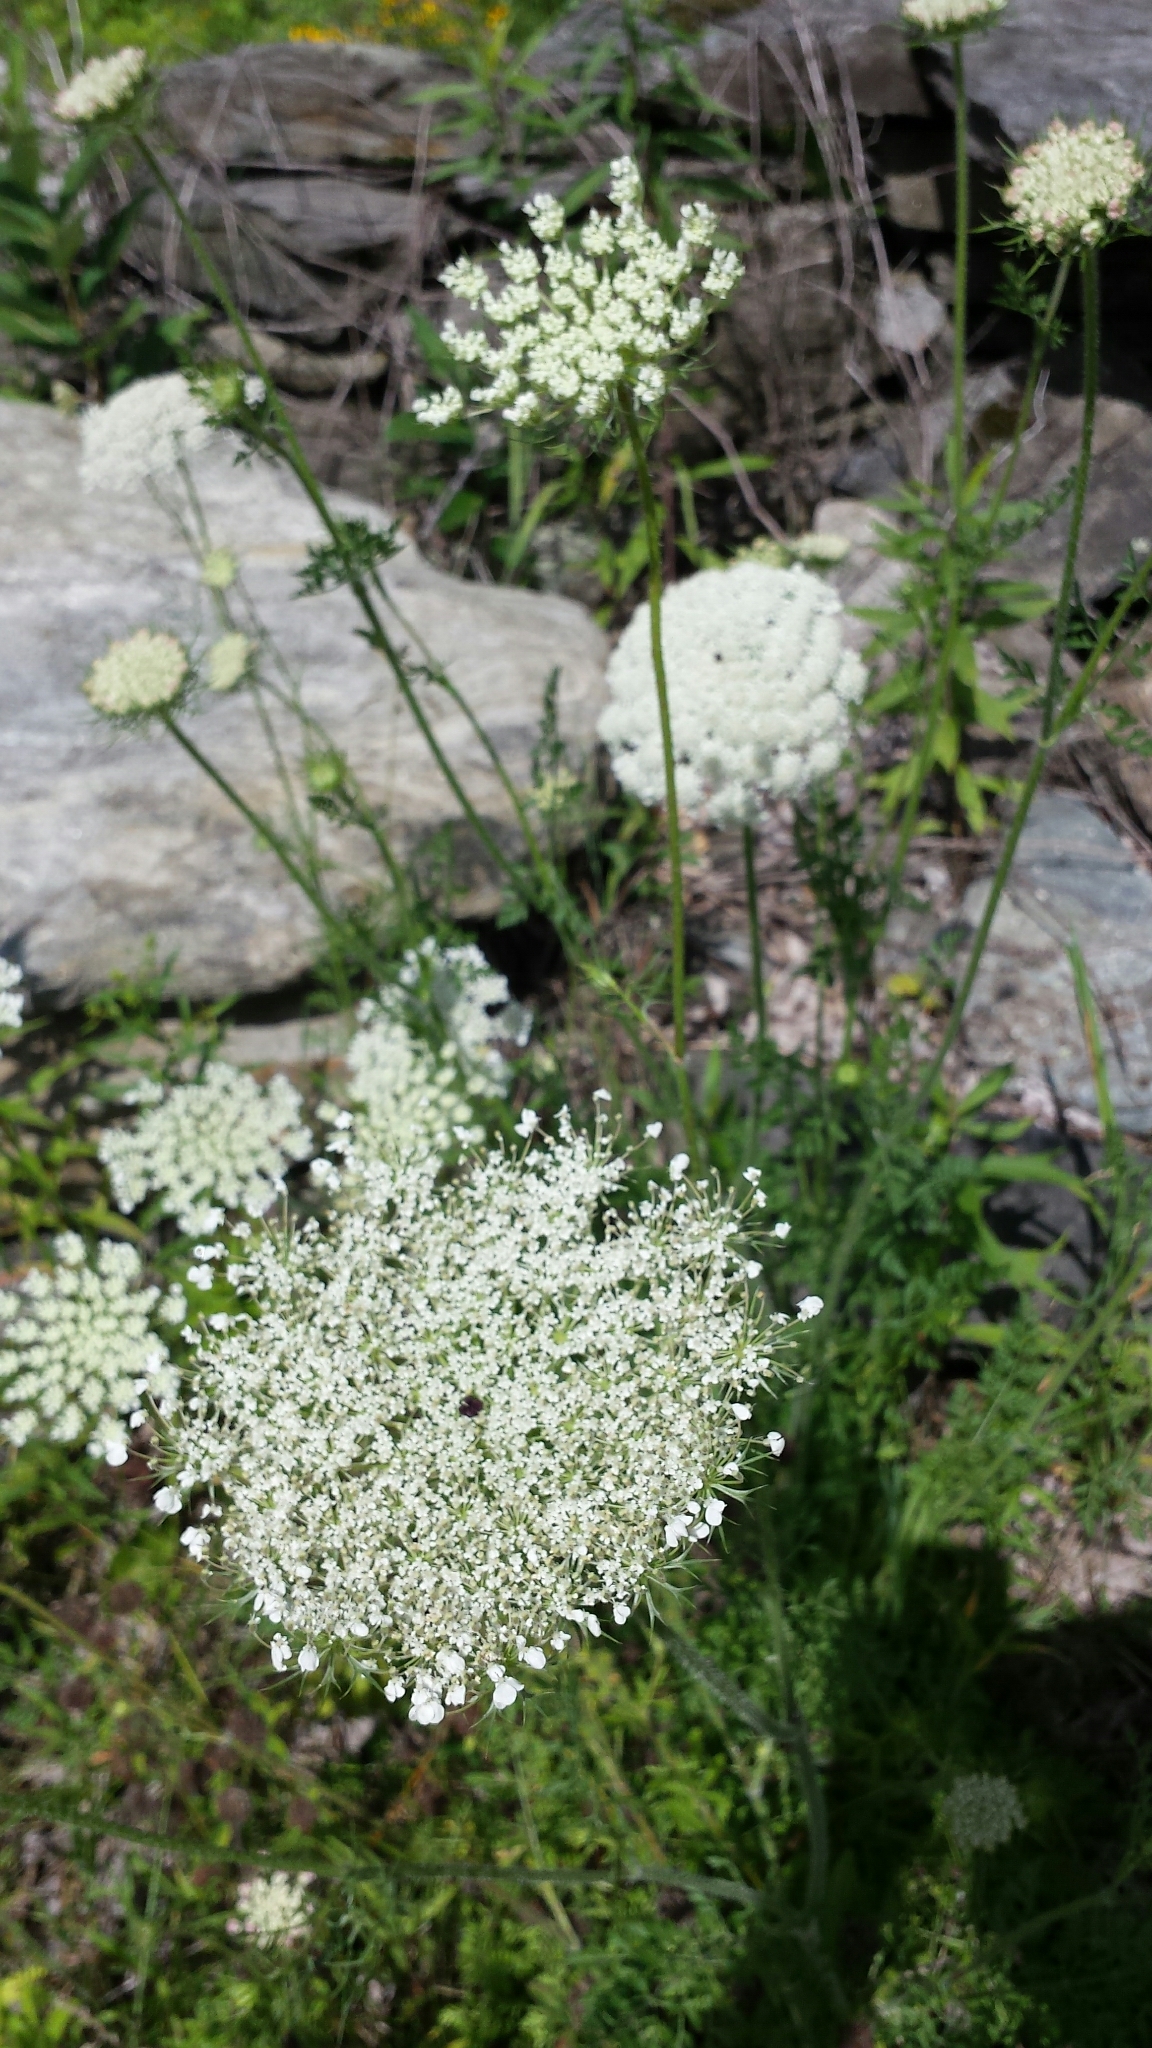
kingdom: Plantae
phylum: Tracheophyta
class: Magnoliopsida
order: Apiales
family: Apiaceae
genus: Daucus
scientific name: Daucus carota
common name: Wild carrot
